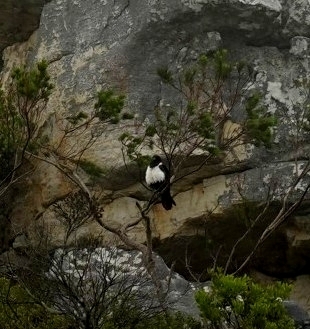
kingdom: Animalia
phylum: Chordata
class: Aves
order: Passeriformes
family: Corvidae
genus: Corvus
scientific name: Corvus albus
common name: Pied crow
